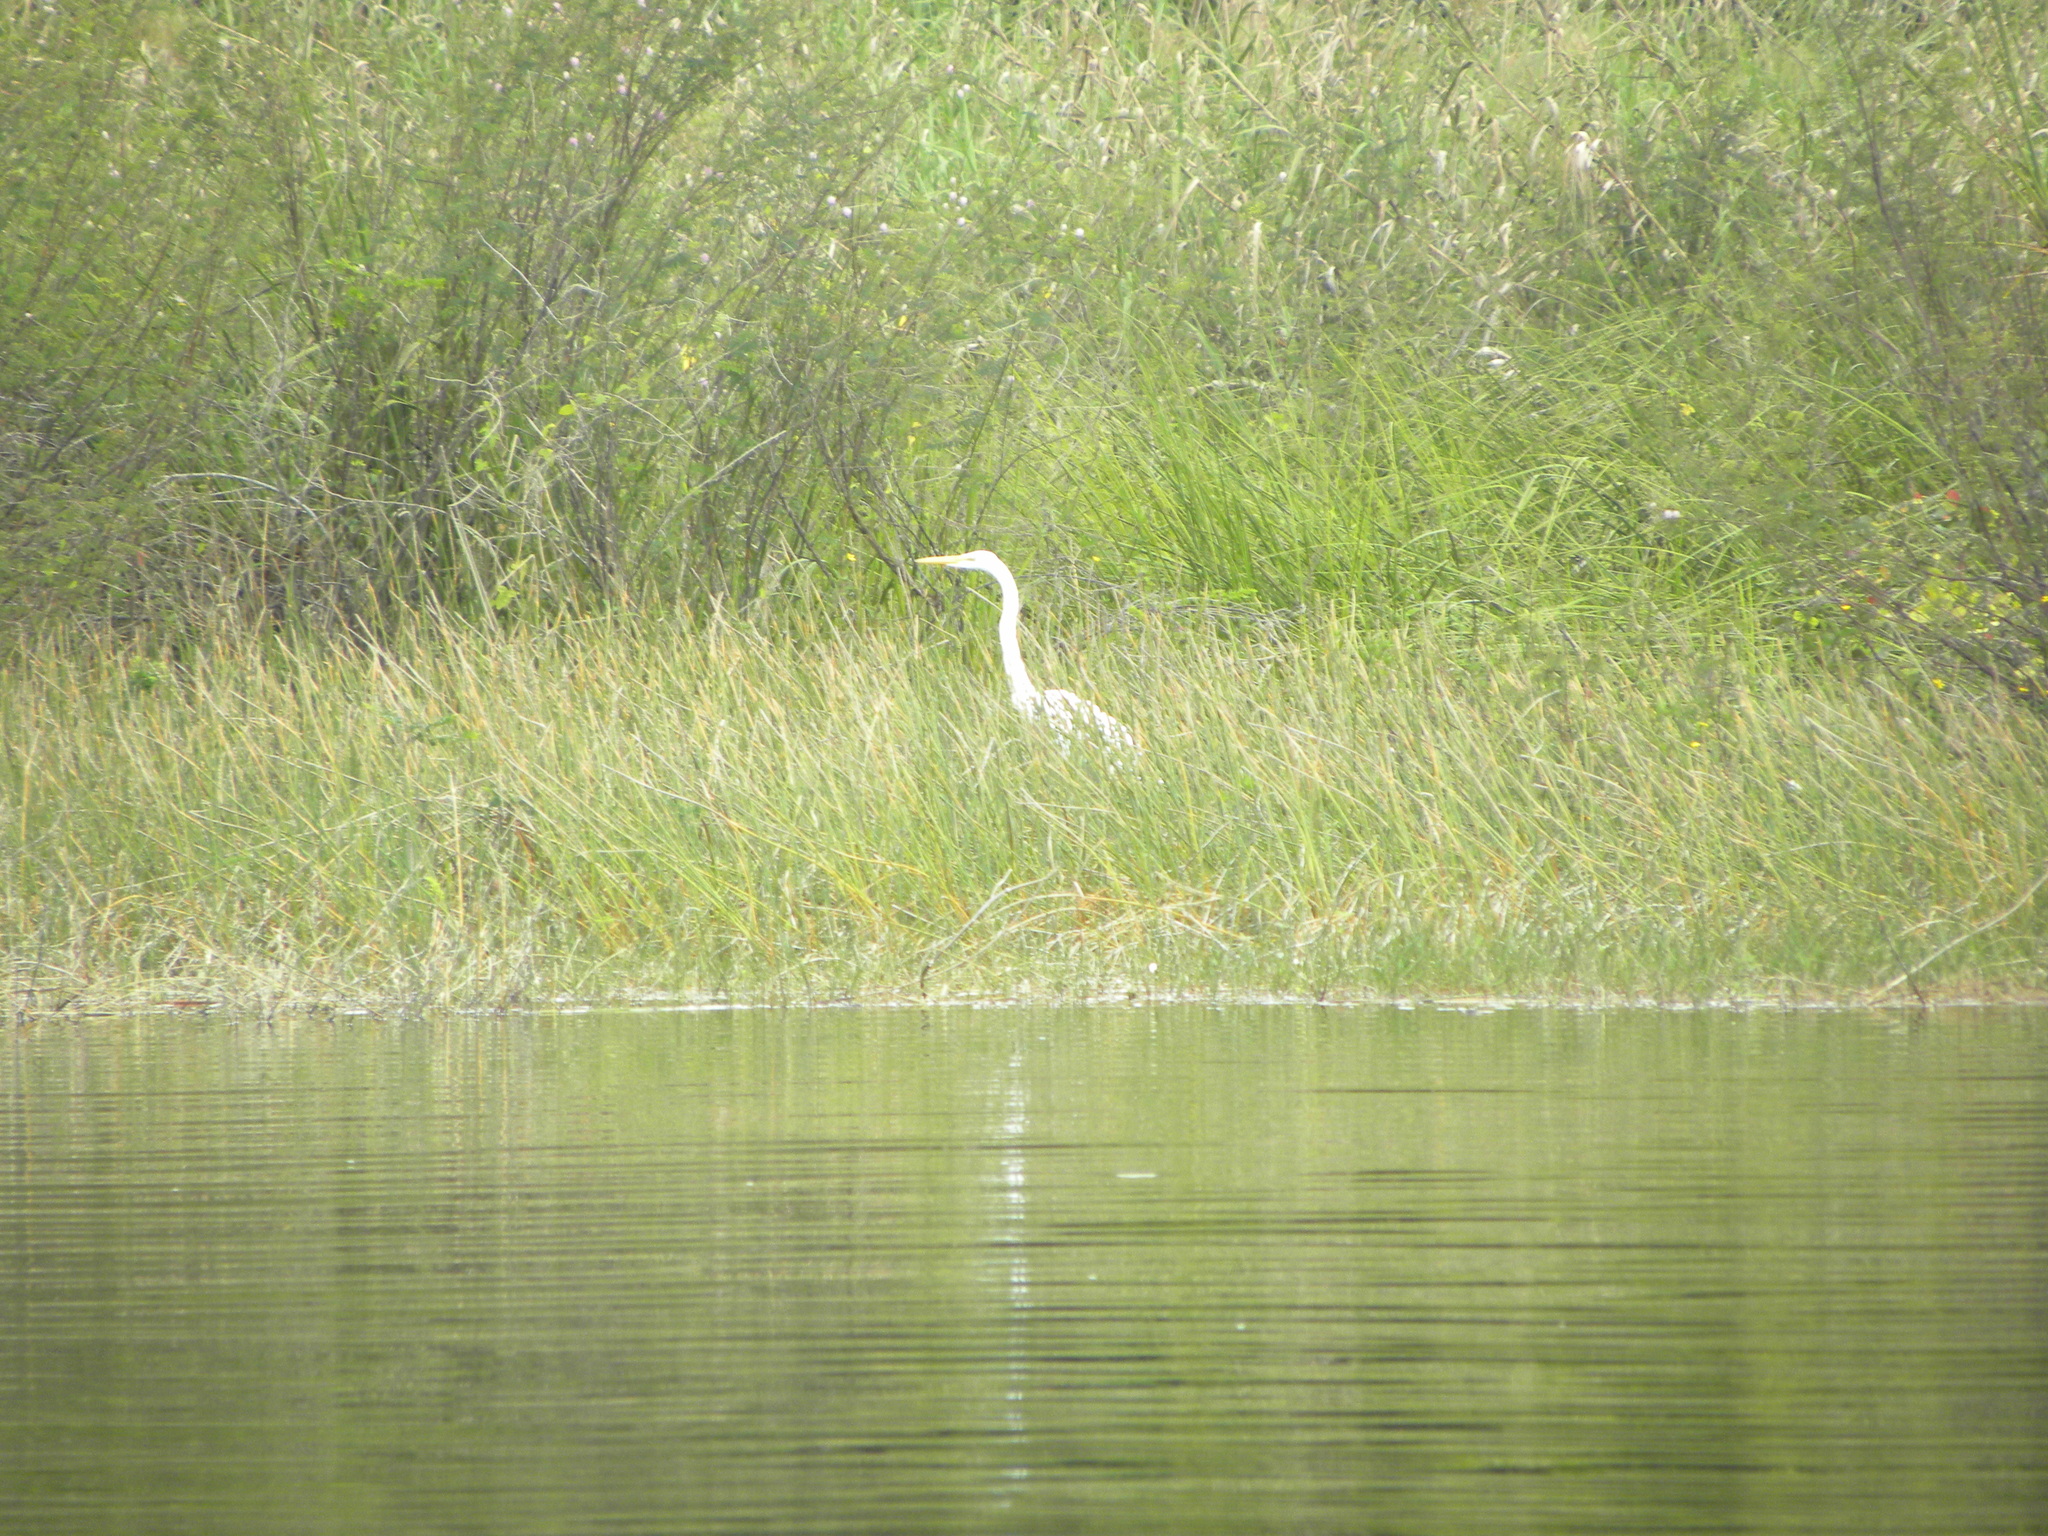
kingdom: Animalia
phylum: Chordata
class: Aves
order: Pelecaniformes
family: Ardeidae
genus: Ardea
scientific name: Ardea alba
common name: Great egret
